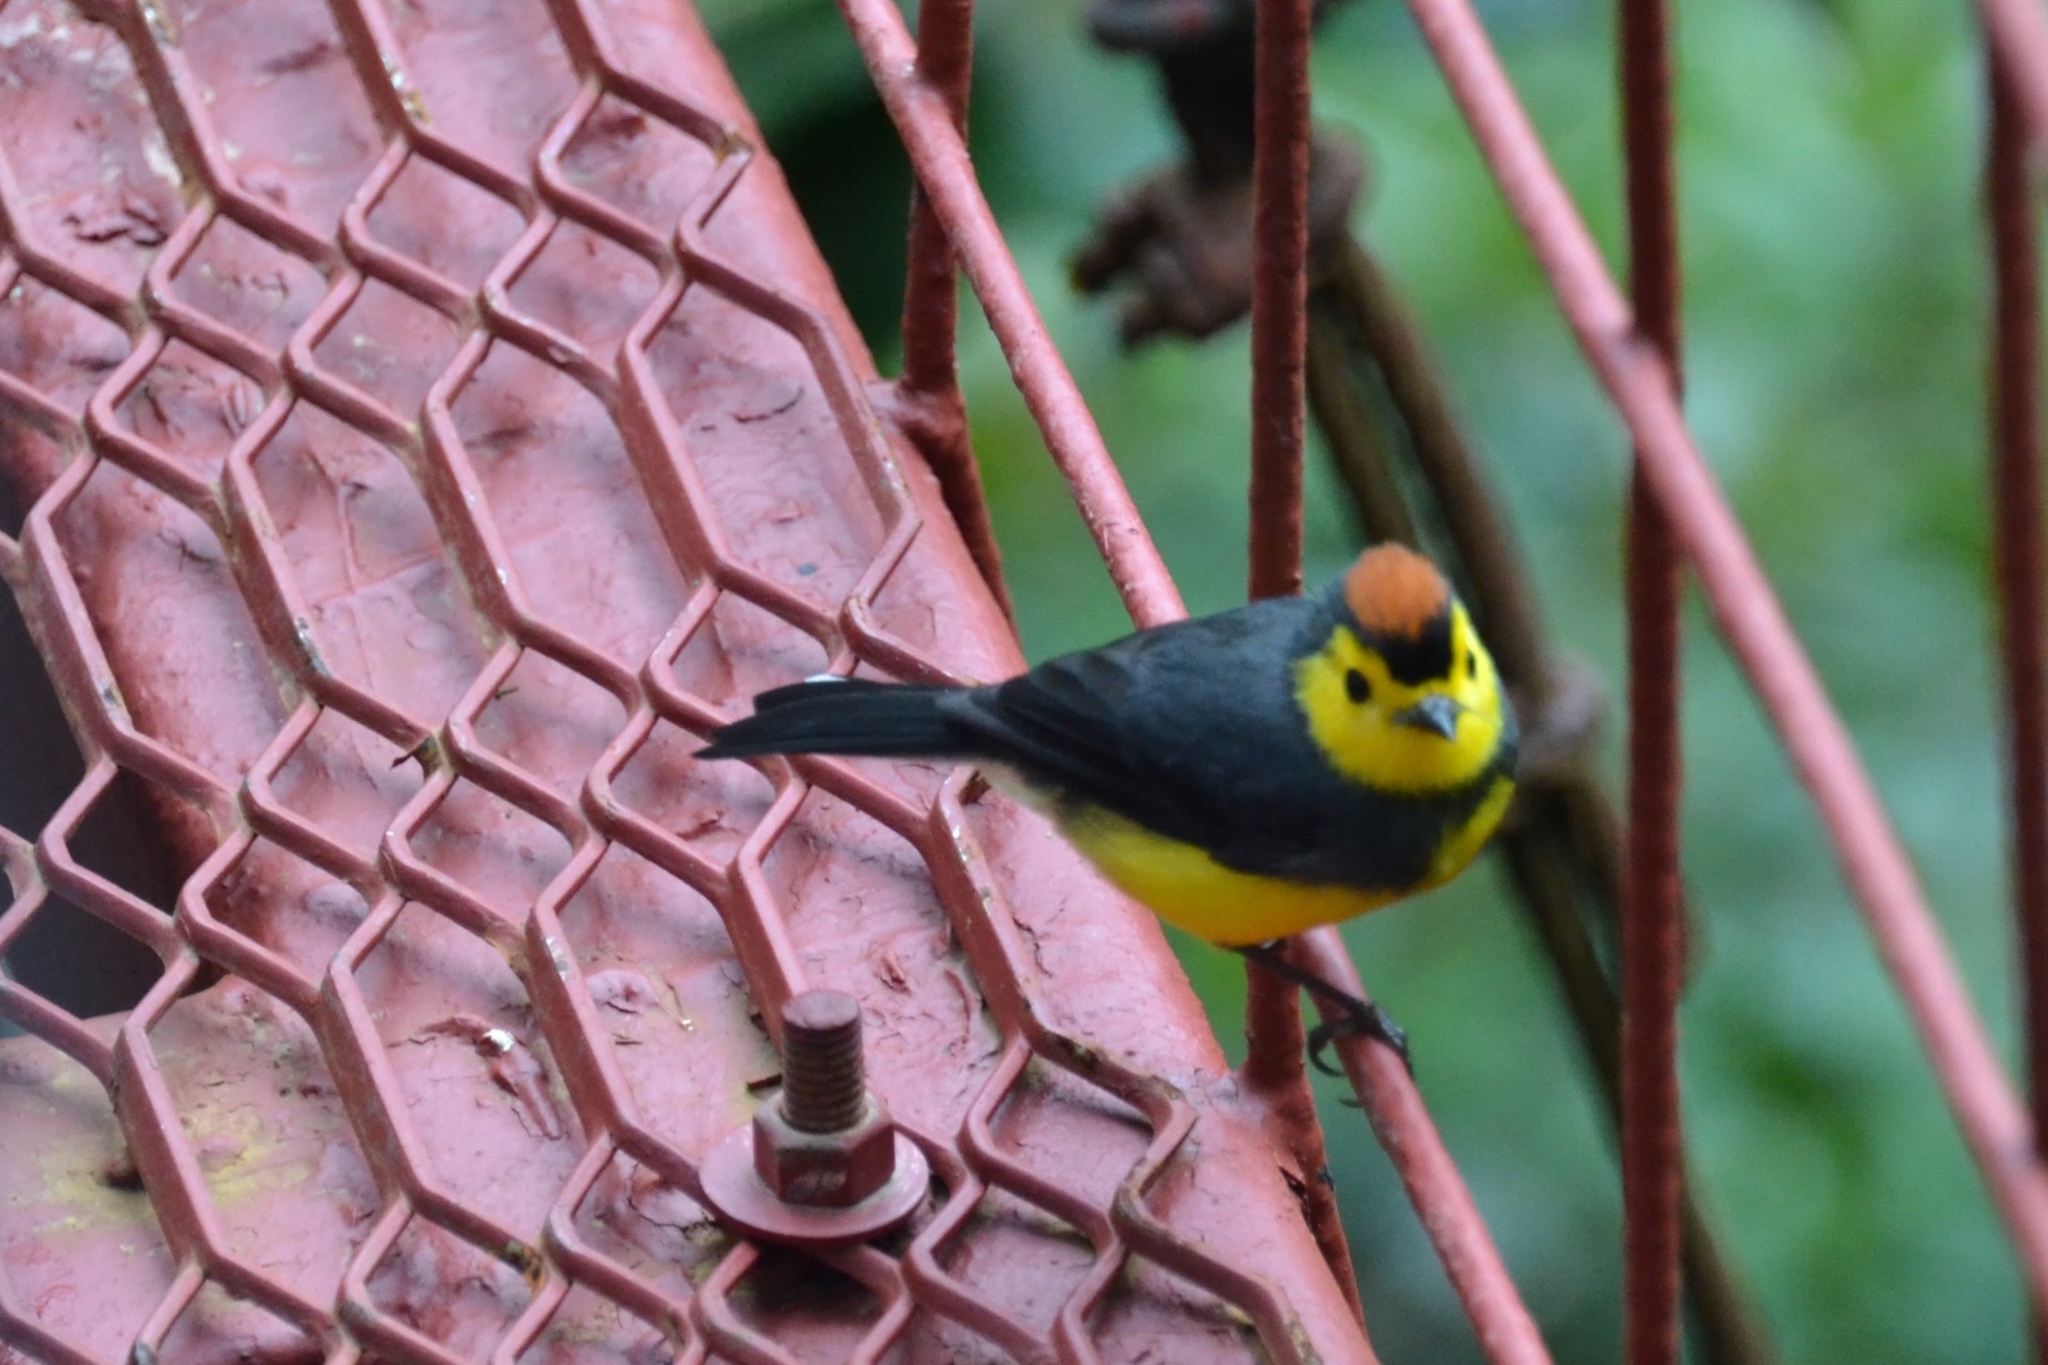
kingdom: Animalia
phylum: Chordata
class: Aves
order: Passeriformes
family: Parulidae
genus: Myioborus
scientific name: Myioborus torquatus
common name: Collared whitestart
